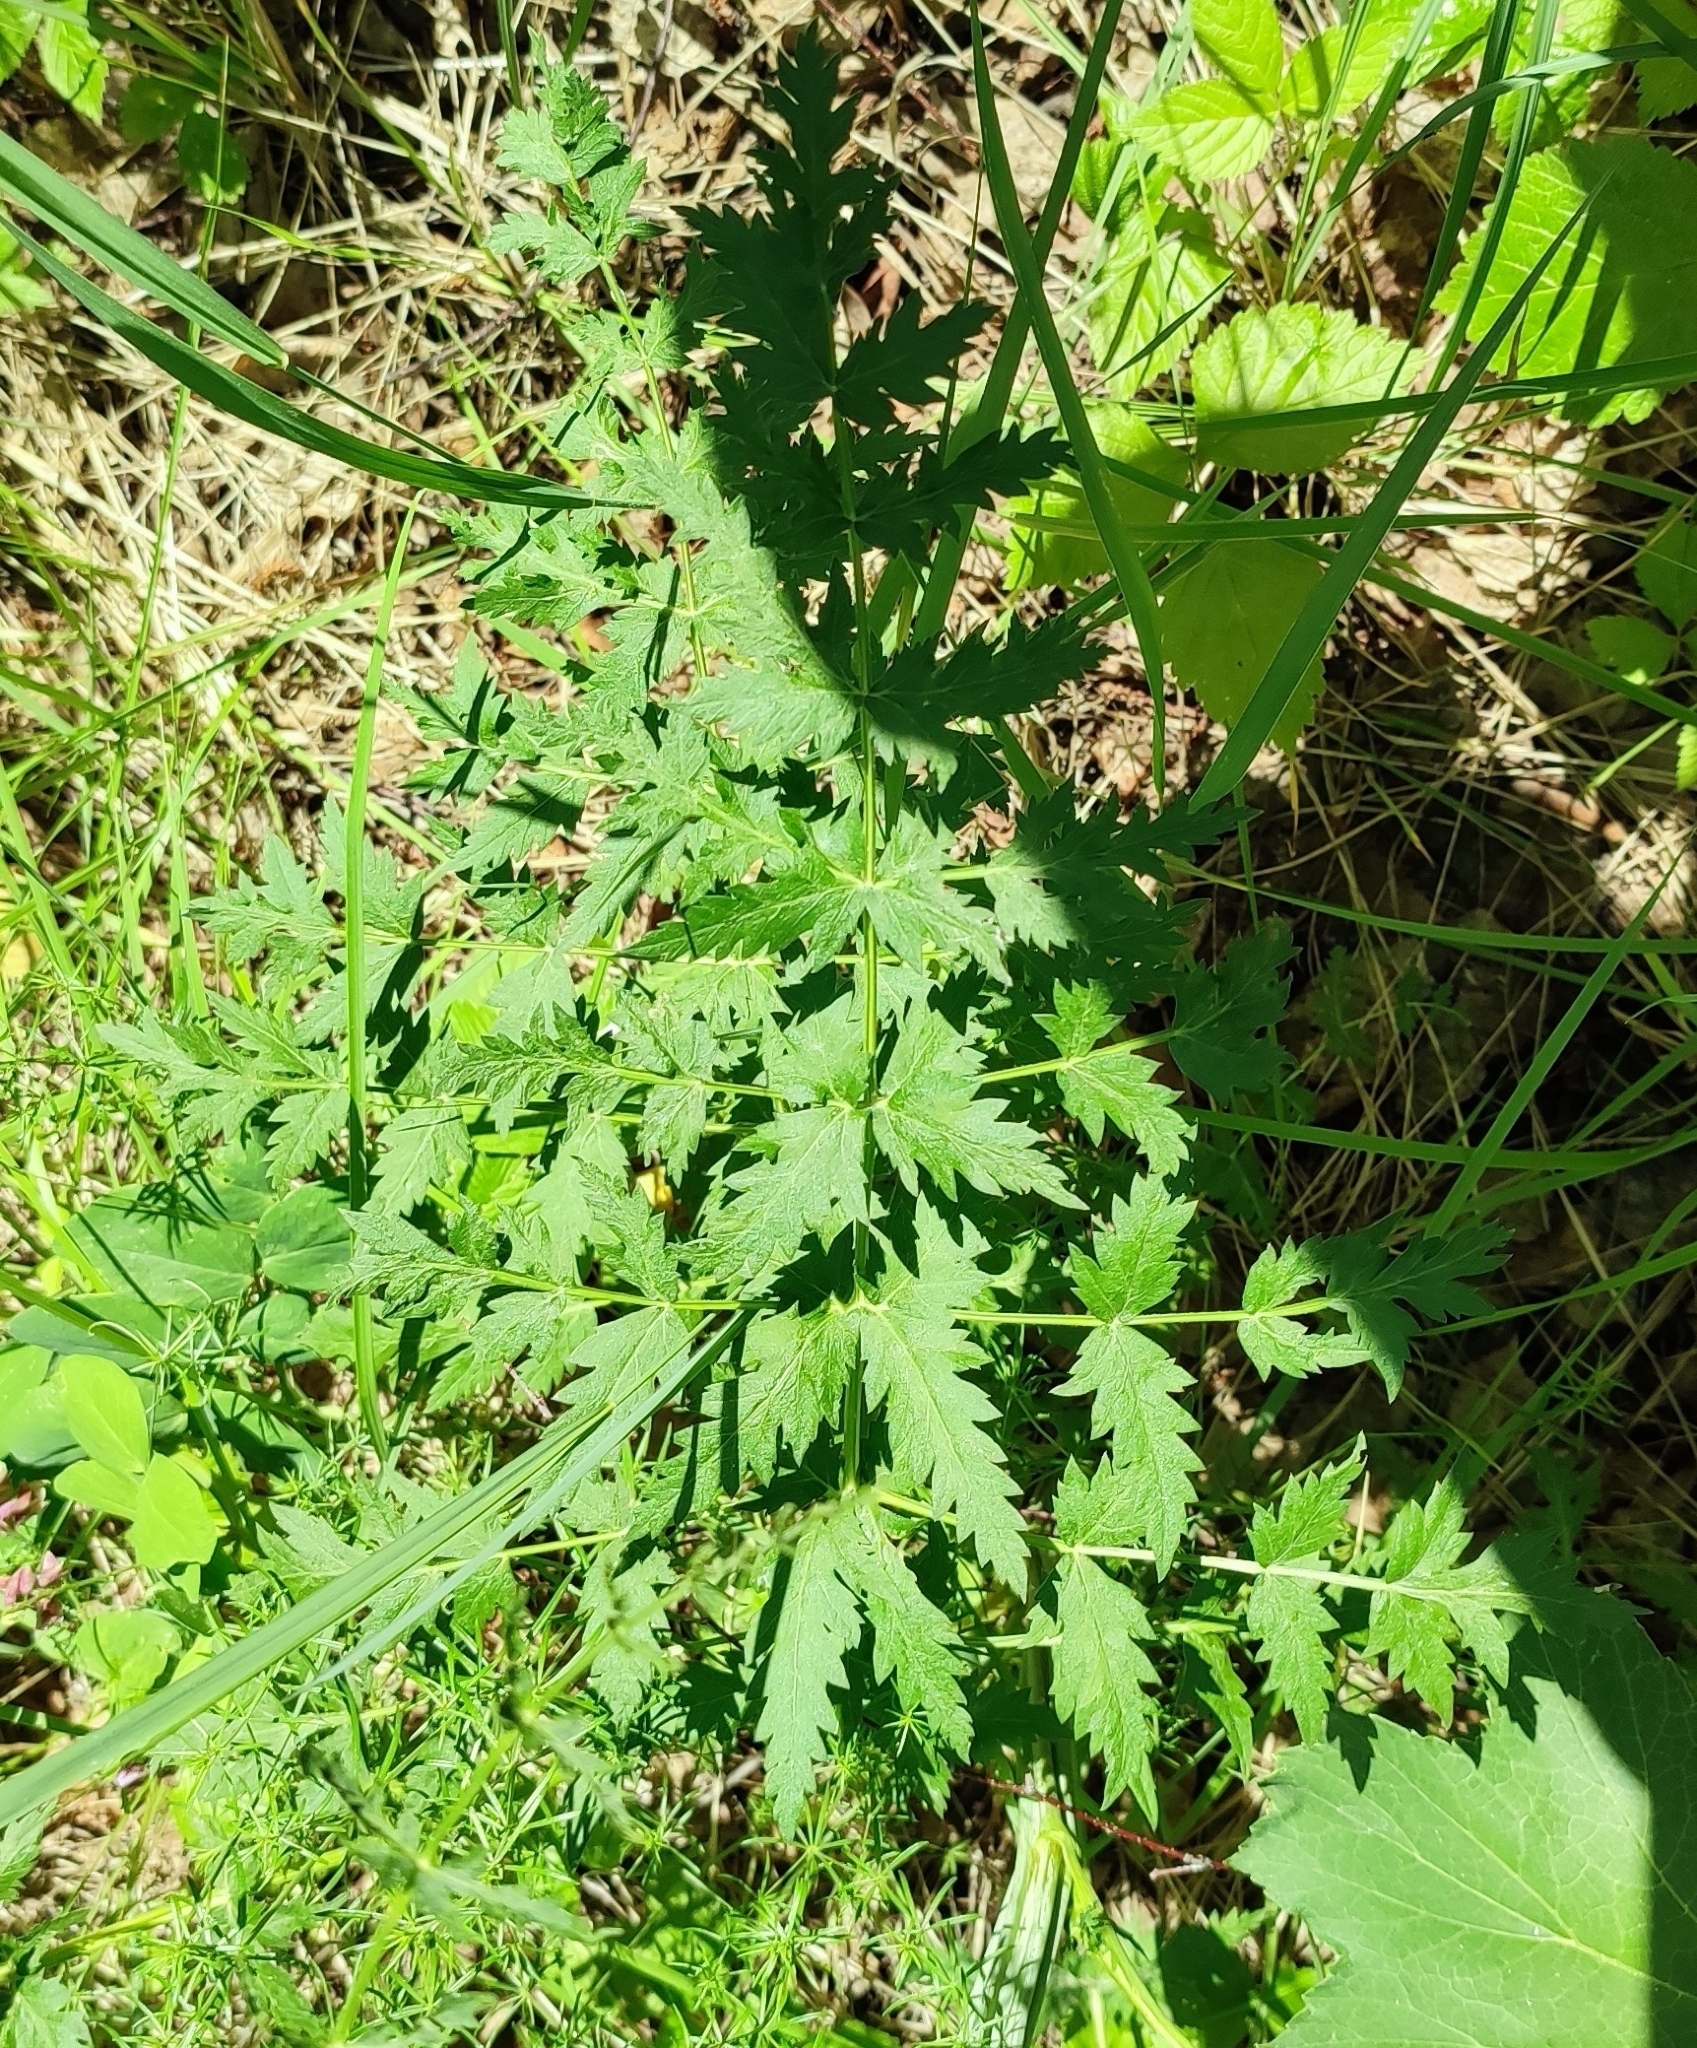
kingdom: Plantae
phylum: Tracheophyta
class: Magnoliopsida
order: Apiales
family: Apiaceae
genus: Seseli
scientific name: Seseli libanotis
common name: Mooncarrot
